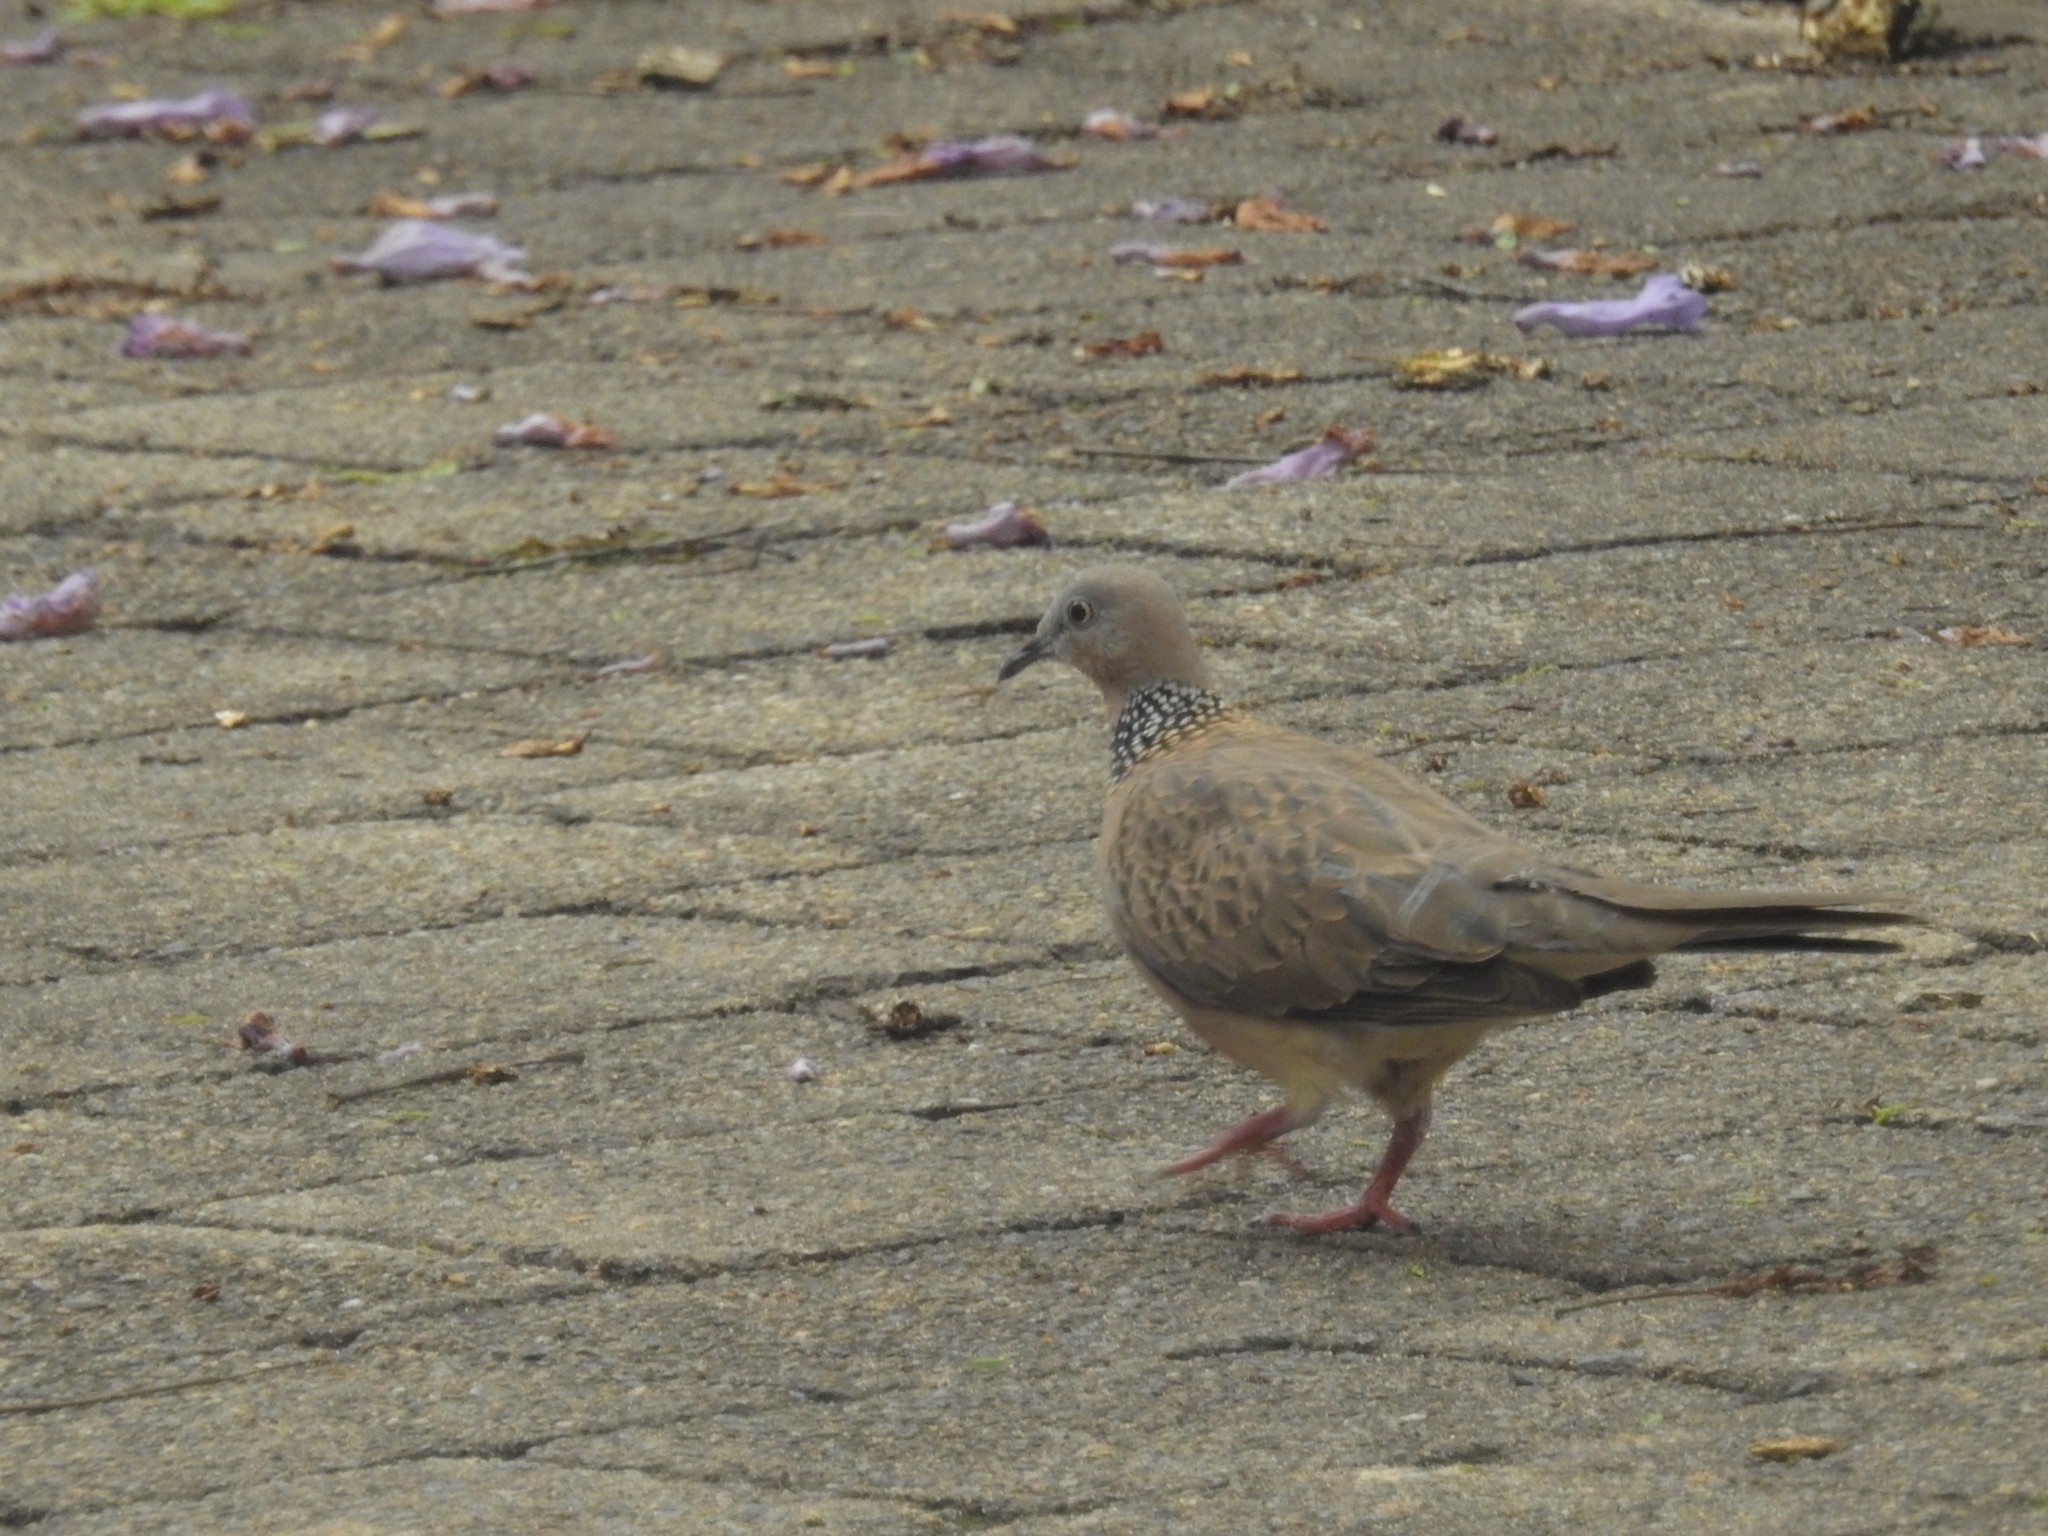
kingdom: Animalia
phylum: Chordata
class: Aves
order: Columbiformes
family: Columbidae
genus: Spilopelia
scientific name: Spilopelia chinensis
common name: Spotted dove
